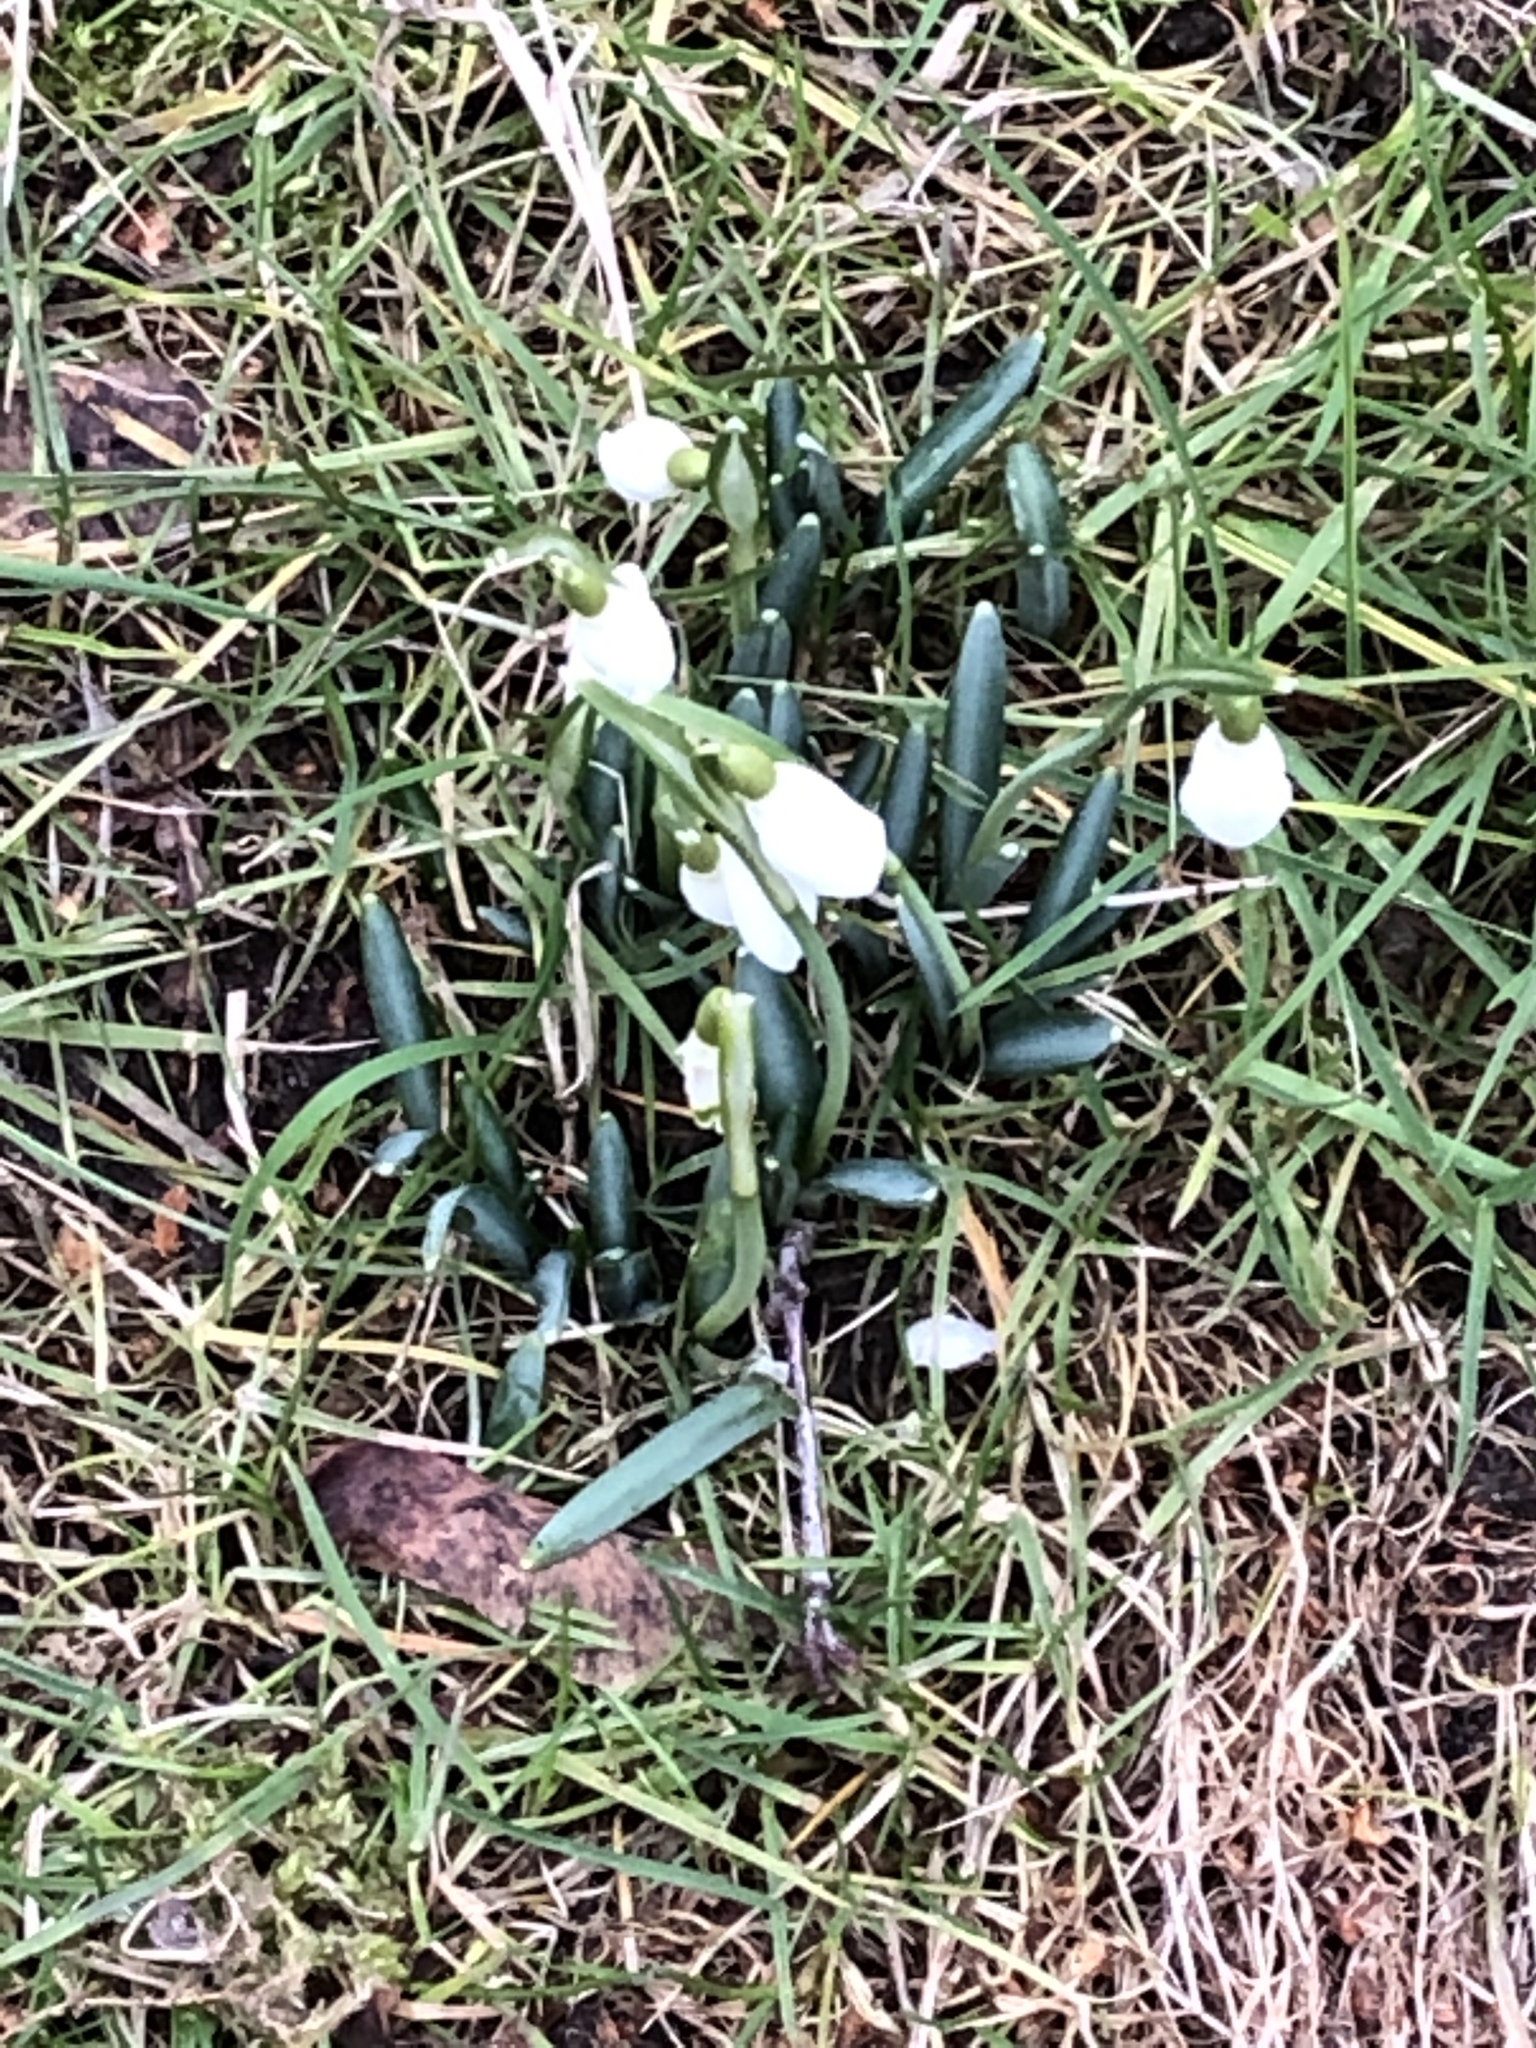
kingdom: Plantae
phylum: Tracheophyta
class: Liliopsida
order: Asparagales
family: Amaryllidaceae
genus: Galanthus
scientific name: Galanthus nivalis
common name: Snowdrop
